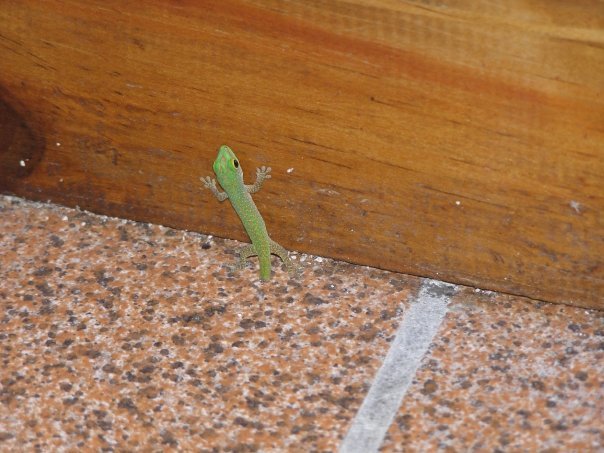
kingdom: Animalia
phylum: Chordata
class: Squamata
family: Gekkonidae
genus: Phelsuma
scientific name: Phelsuma sundbergi
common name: Seychelles giant day gecko
